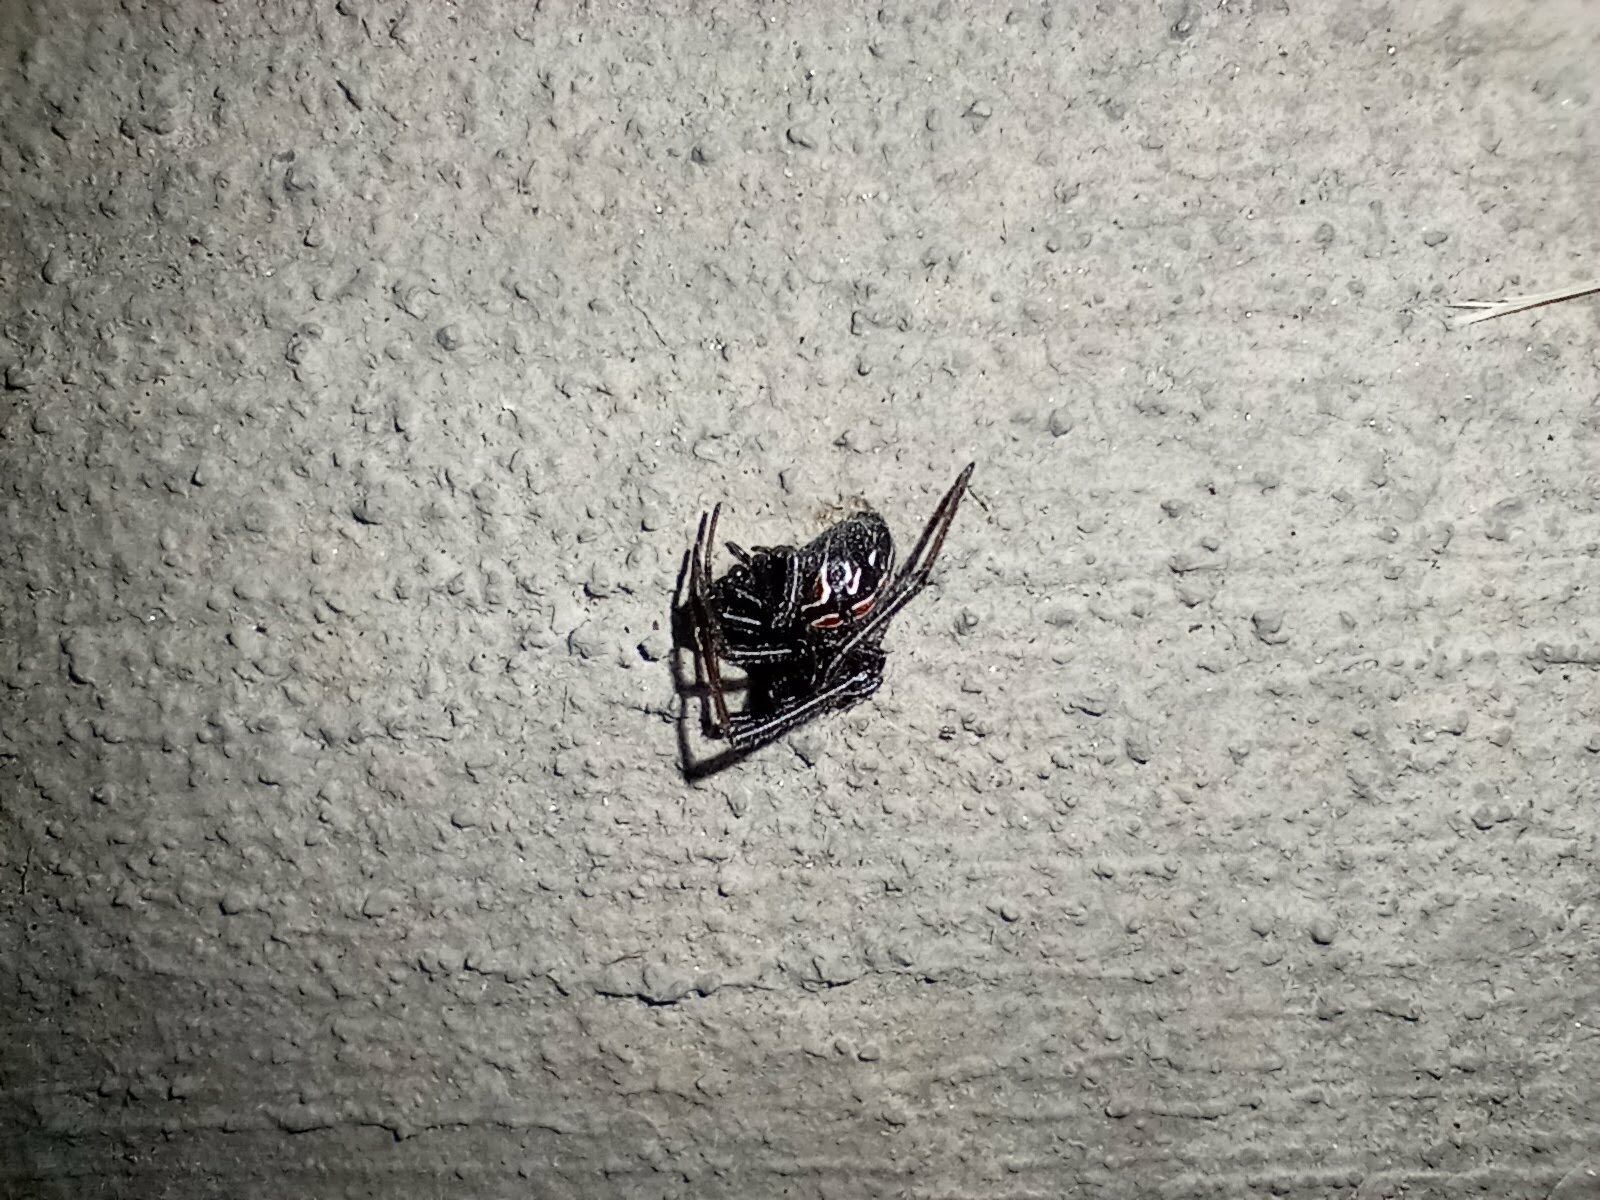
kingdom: Animalia
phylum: Arthropoda
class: Arachnida
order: Araneae
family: Theridiidae
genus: Latrodectus
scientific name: Latrodectus hesperus
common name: Western black widow
